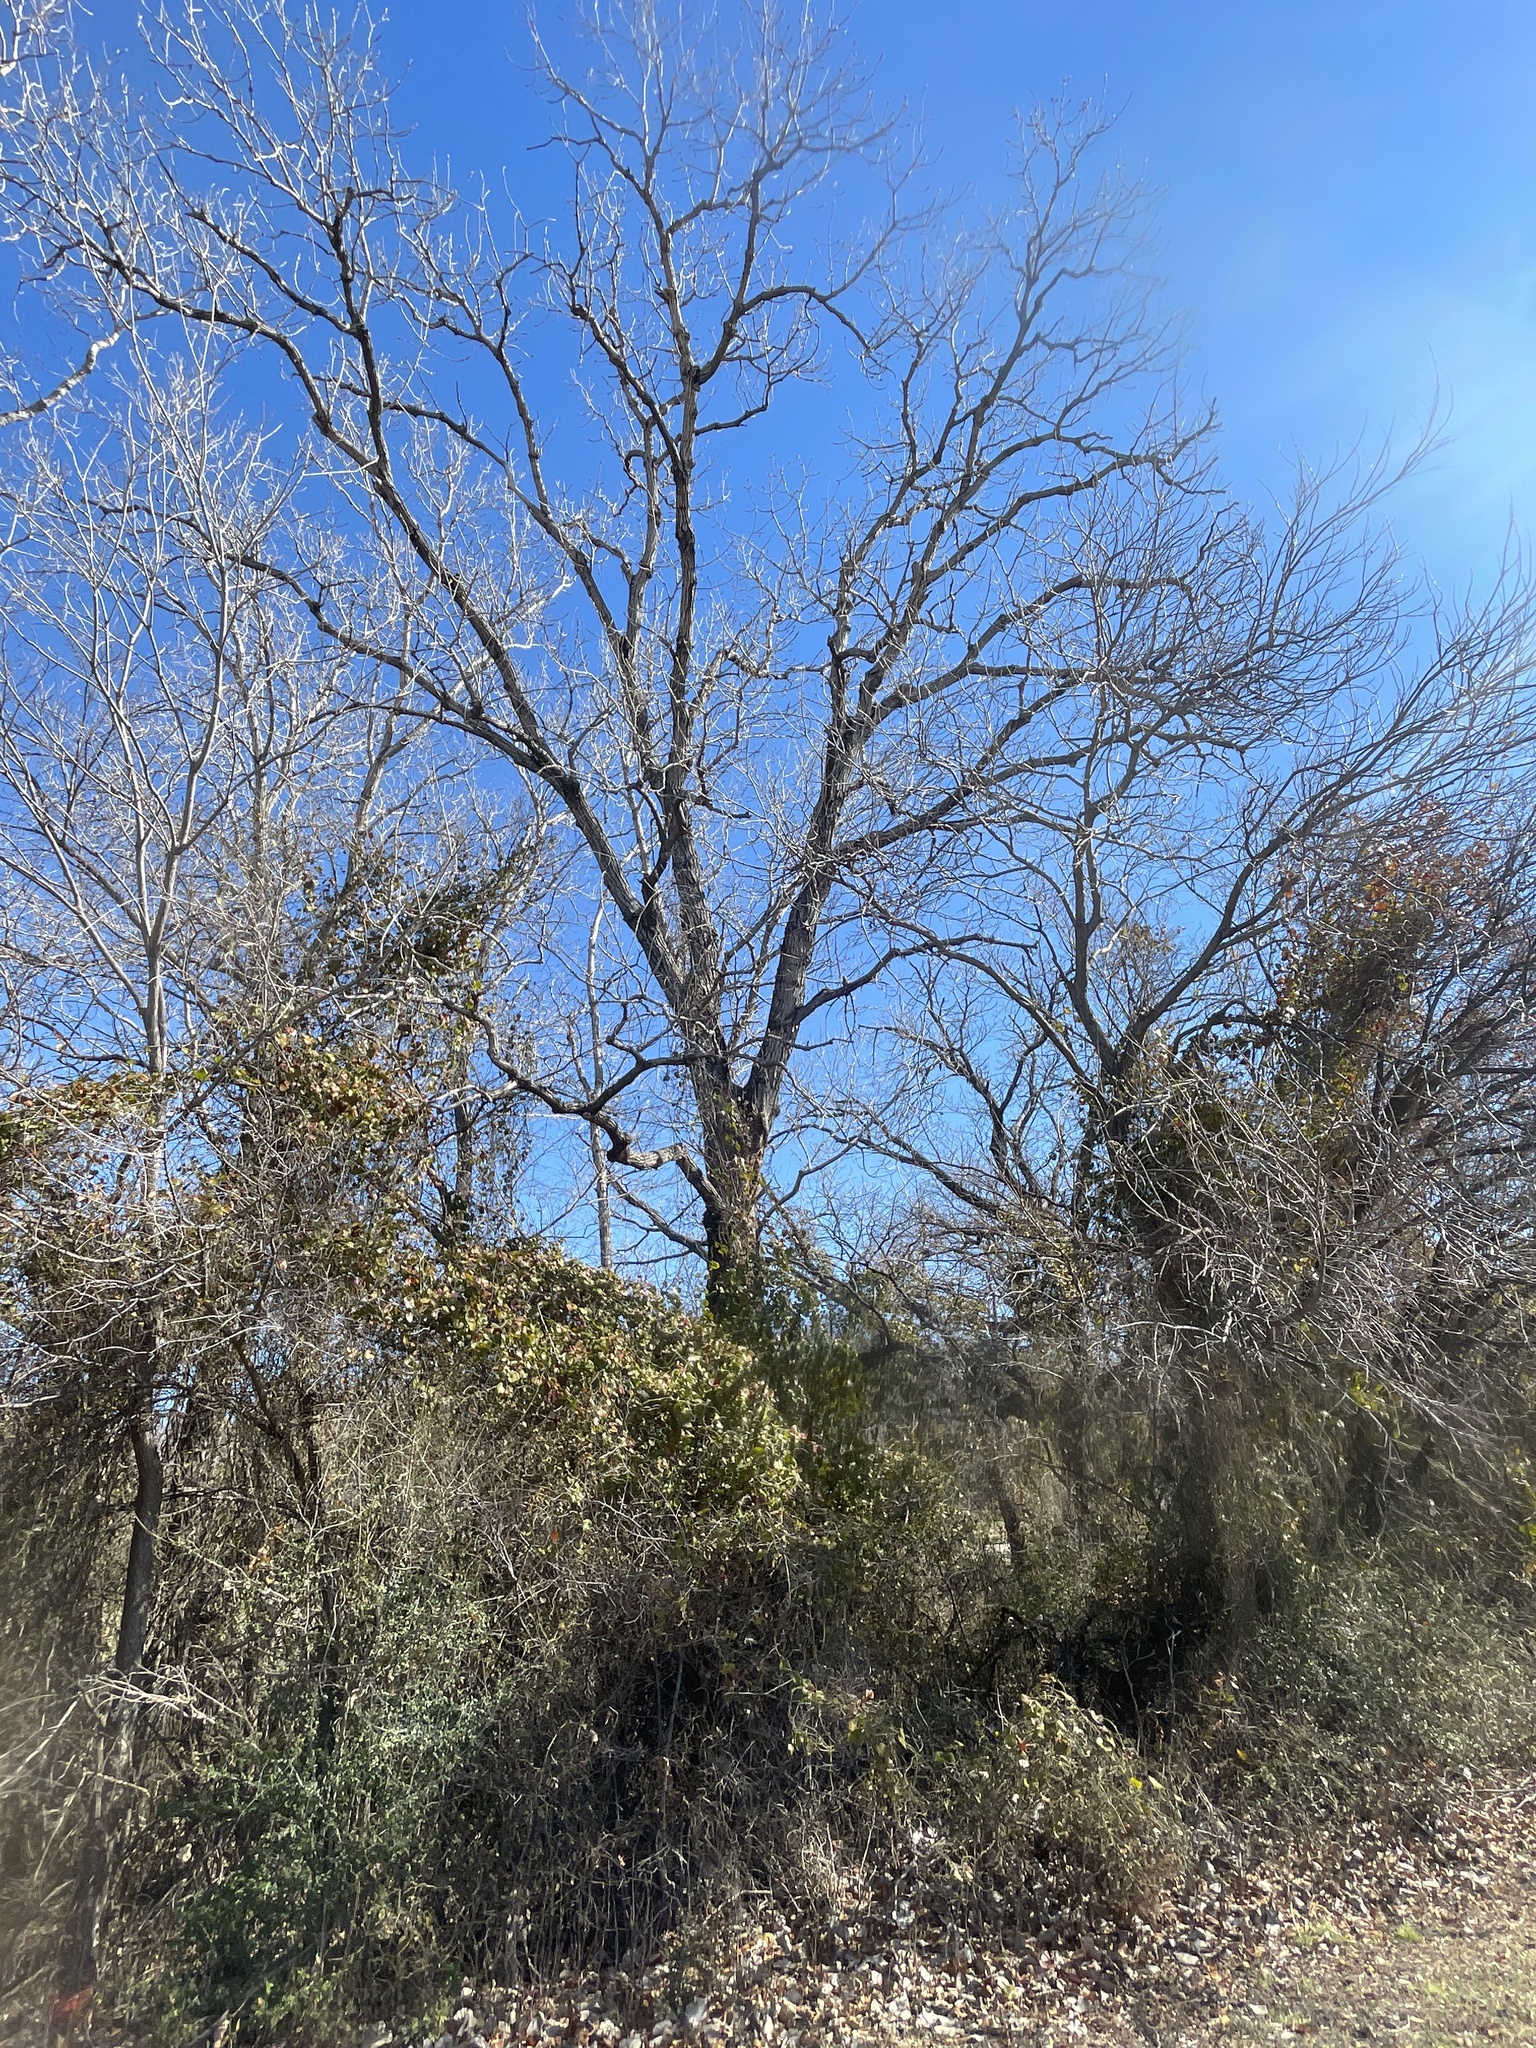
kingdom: Plantae
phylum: Tracheophyta
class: Magnoliopsida
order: Malpighiales
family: Salicaceae
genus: Populus
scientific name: Populus deltoides
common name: Eastern cottonwood
